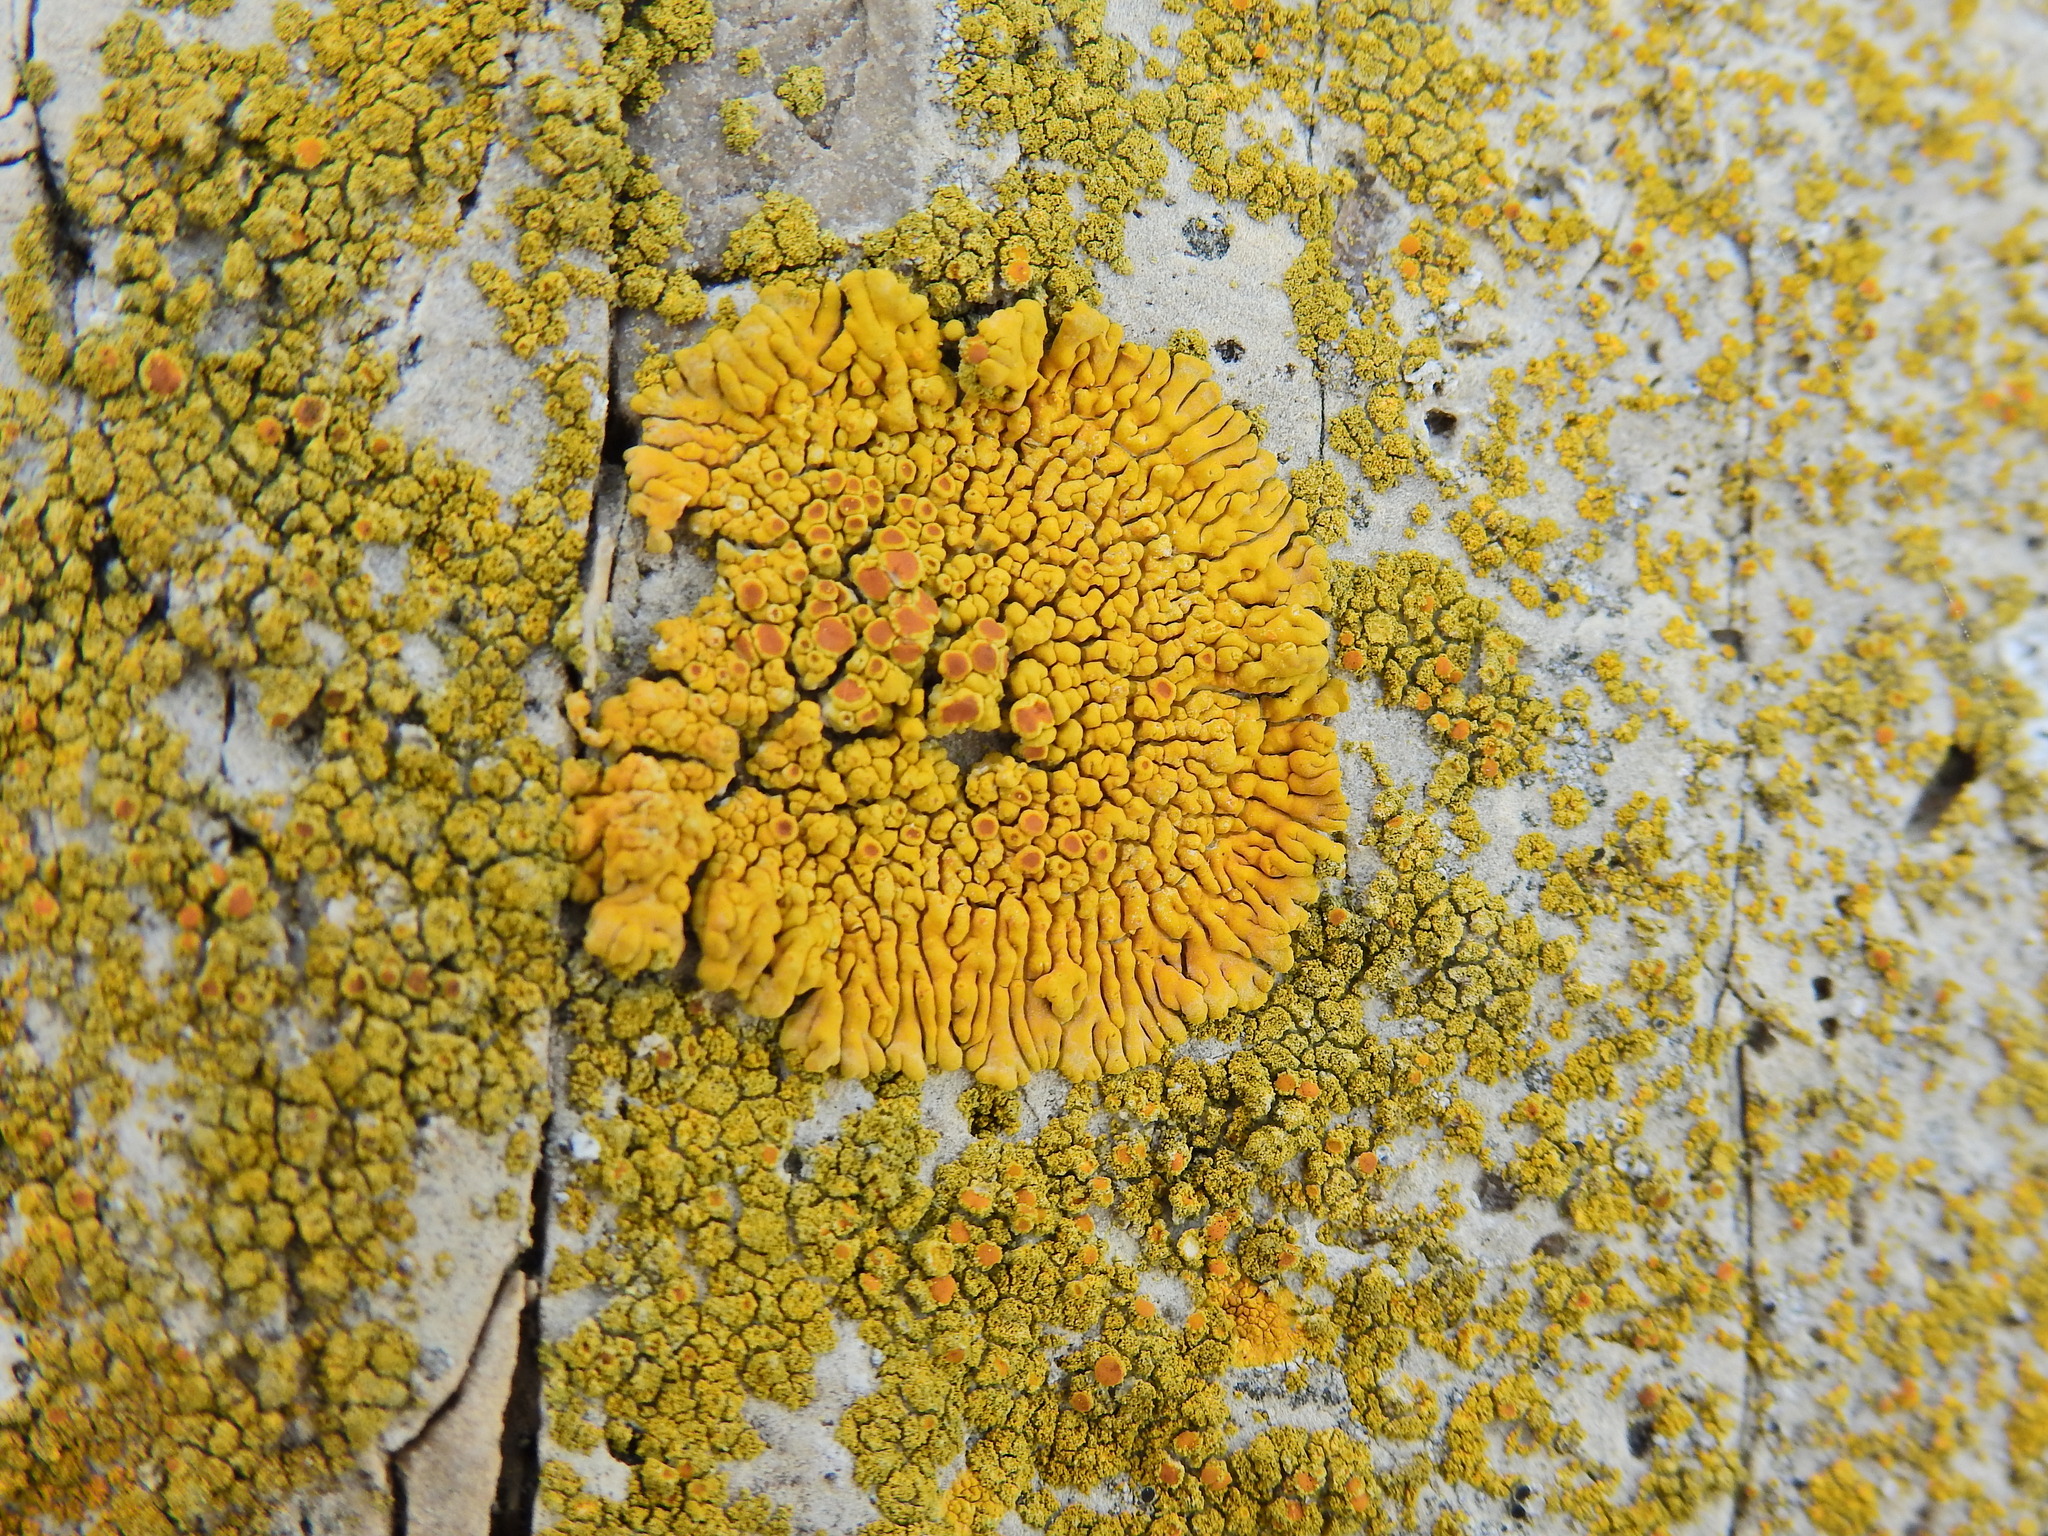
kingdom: Fungi
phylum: Ascomycota
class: Lecanoromycetes
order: Teloschistales
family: Teloschistaceae
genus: Variospora
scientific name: Variospora thallincola
